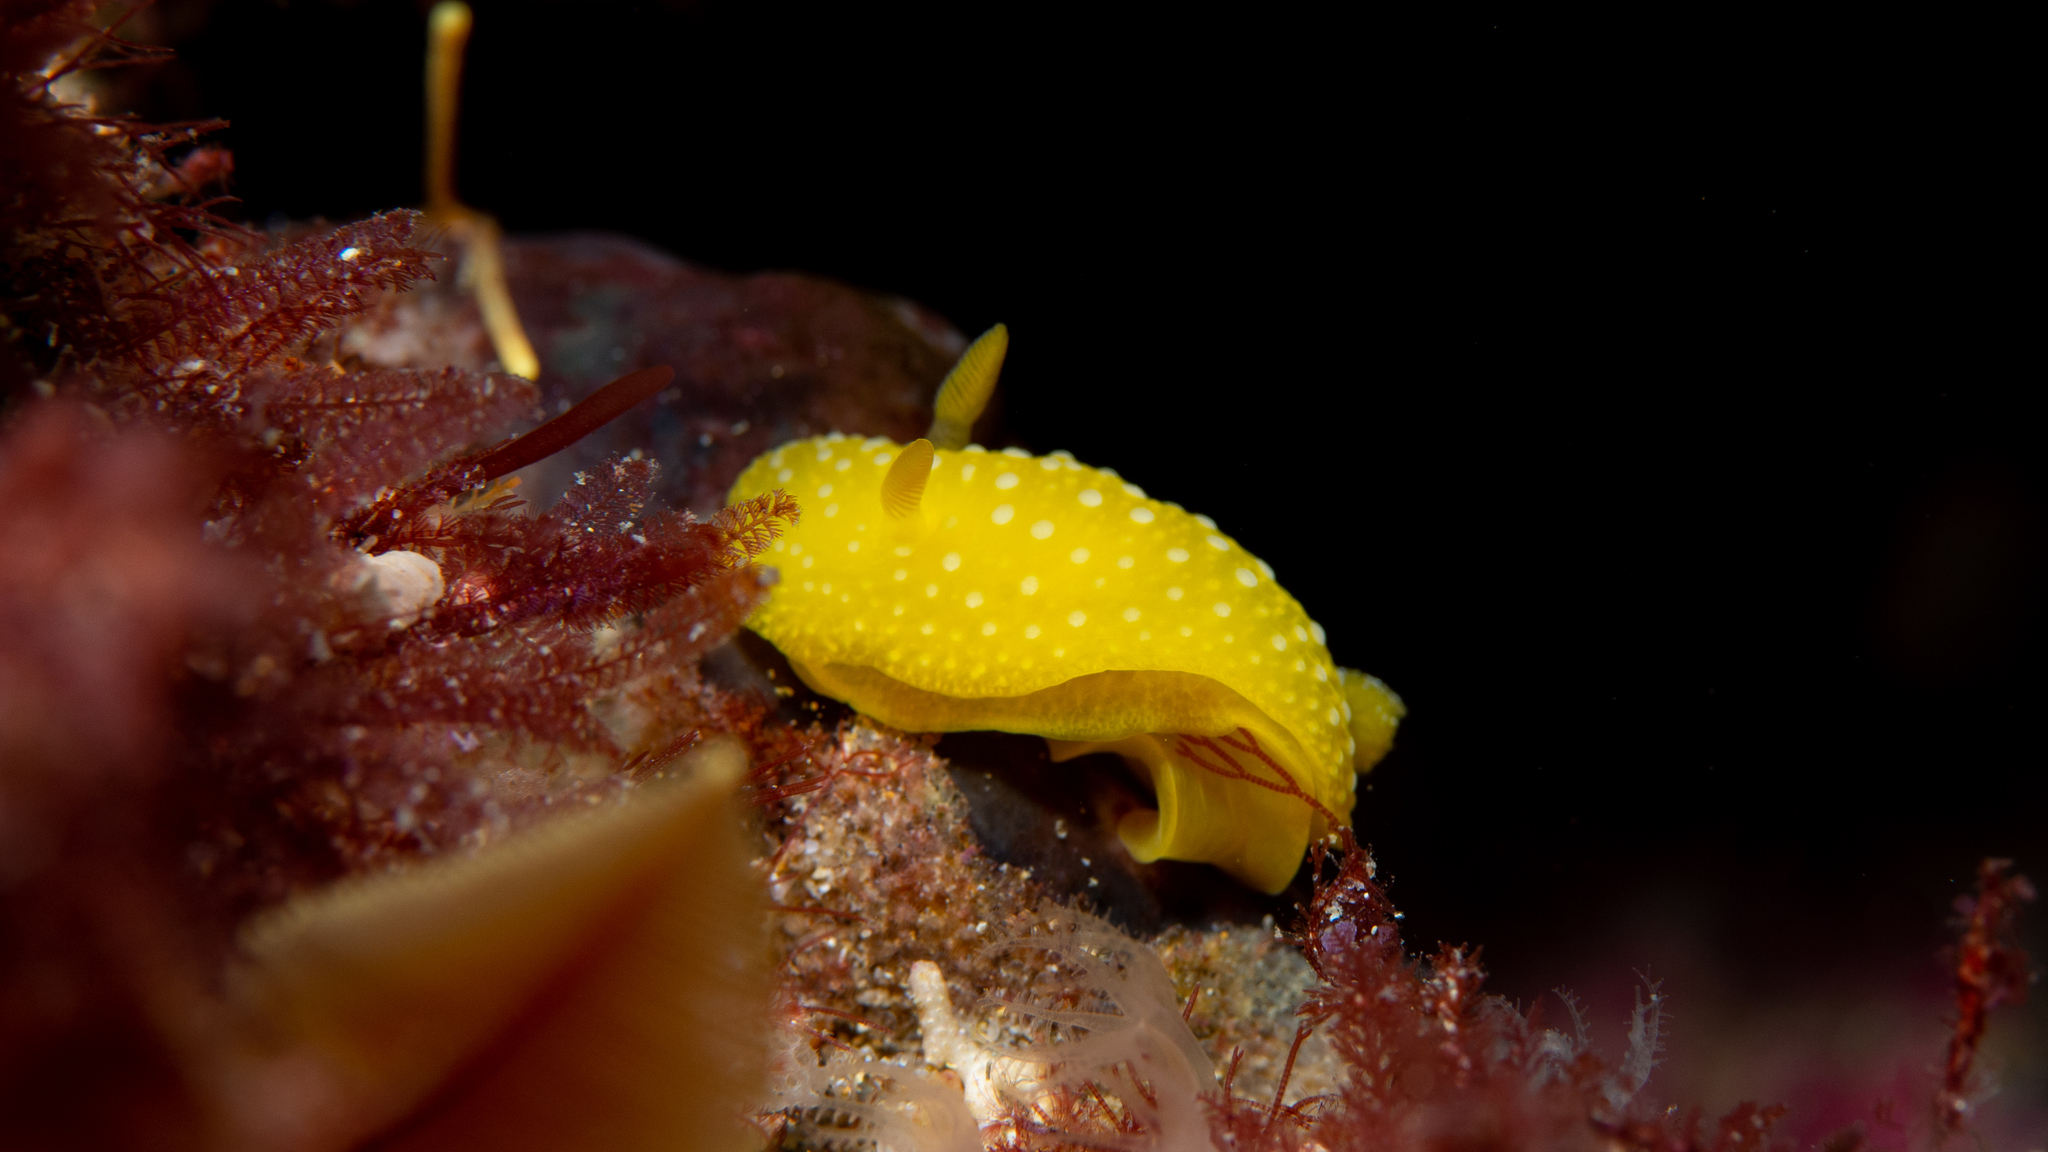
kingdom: Animalia
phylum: Mollusca
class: Gastropoda
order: Nudibranchia
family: Dorididae
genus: Doris
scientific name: Doris chrysoderma
